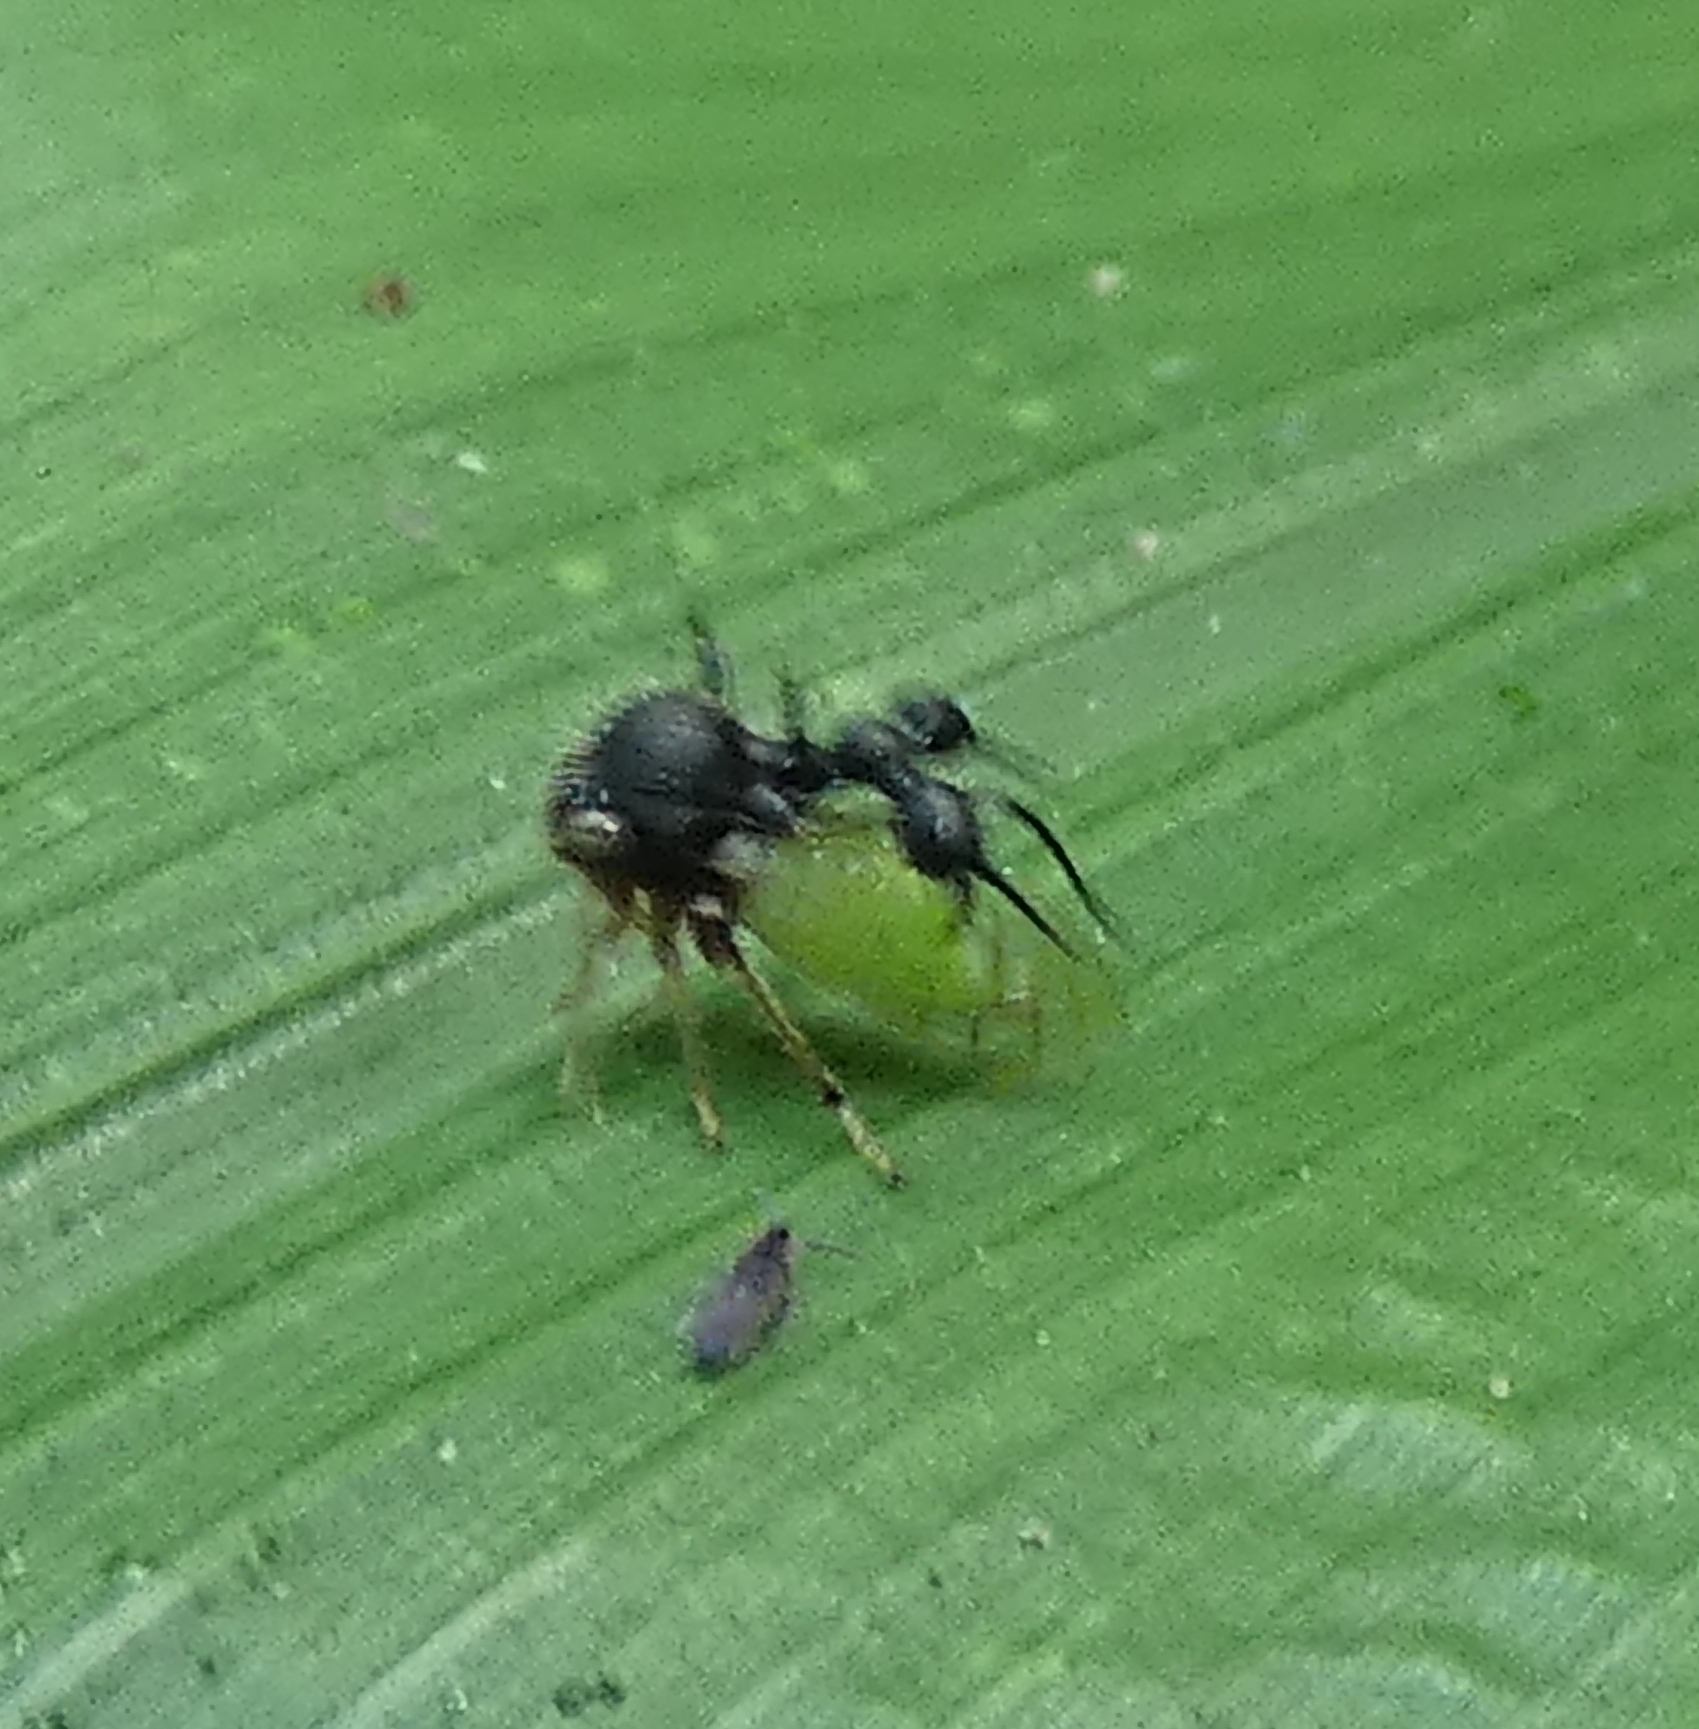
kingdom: Animalia
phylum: Arthropoda
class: Insecta
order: Hemiptera
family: Membracidae
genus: Cyphonia
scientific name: Cyphonia clavata
